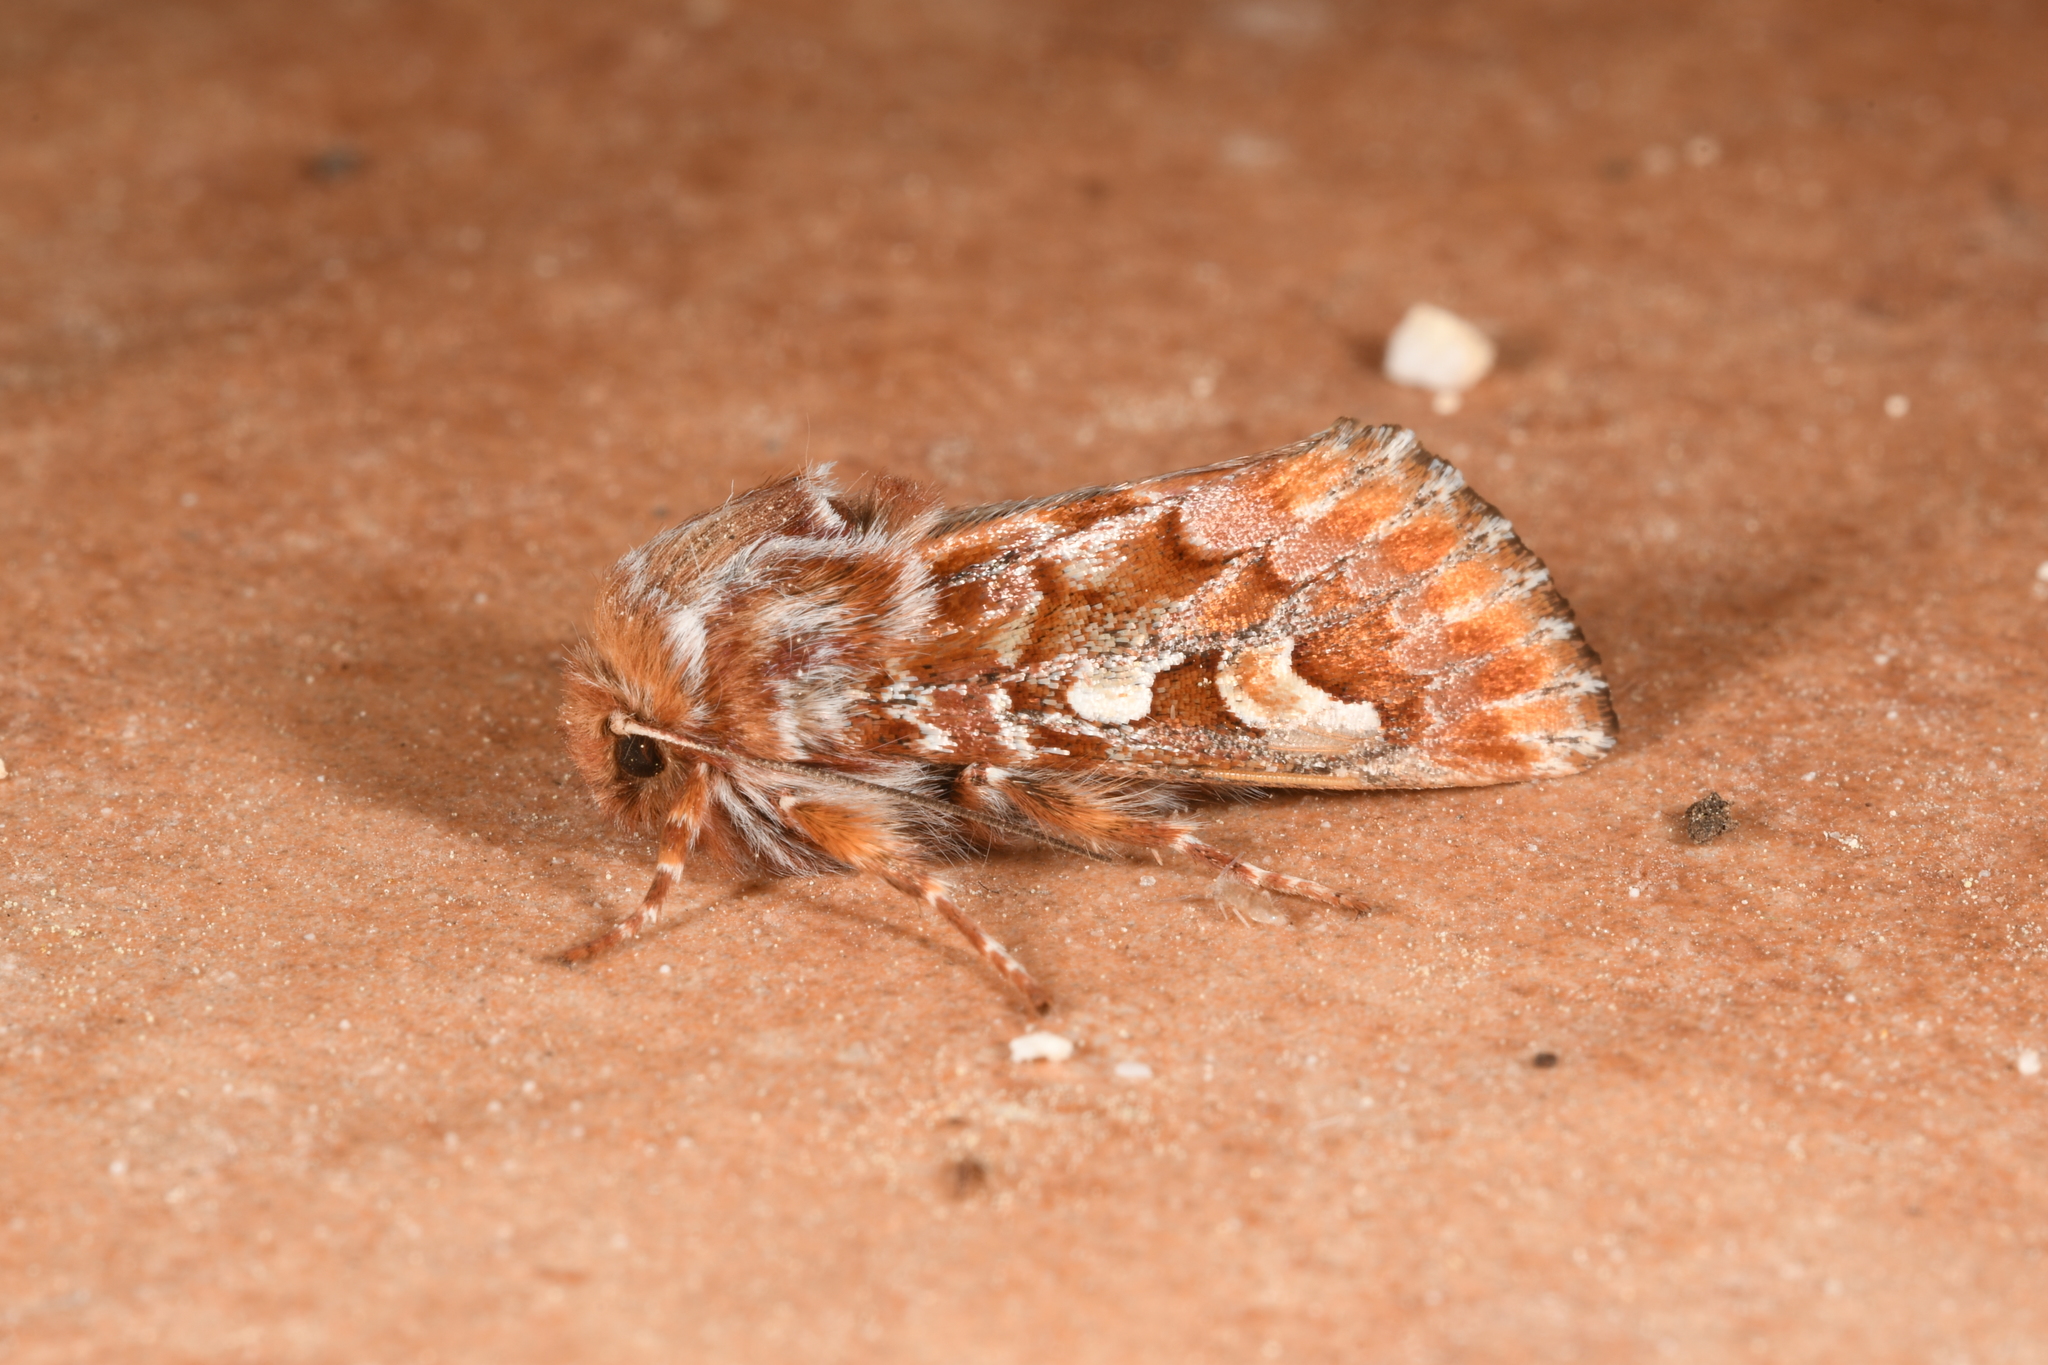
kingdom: Animalia
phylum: Arthropoda
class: Insecta
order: Lepidoptera
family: Noctuidae
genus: Panolis
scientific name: Panolis flammea
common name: Pine beauty
